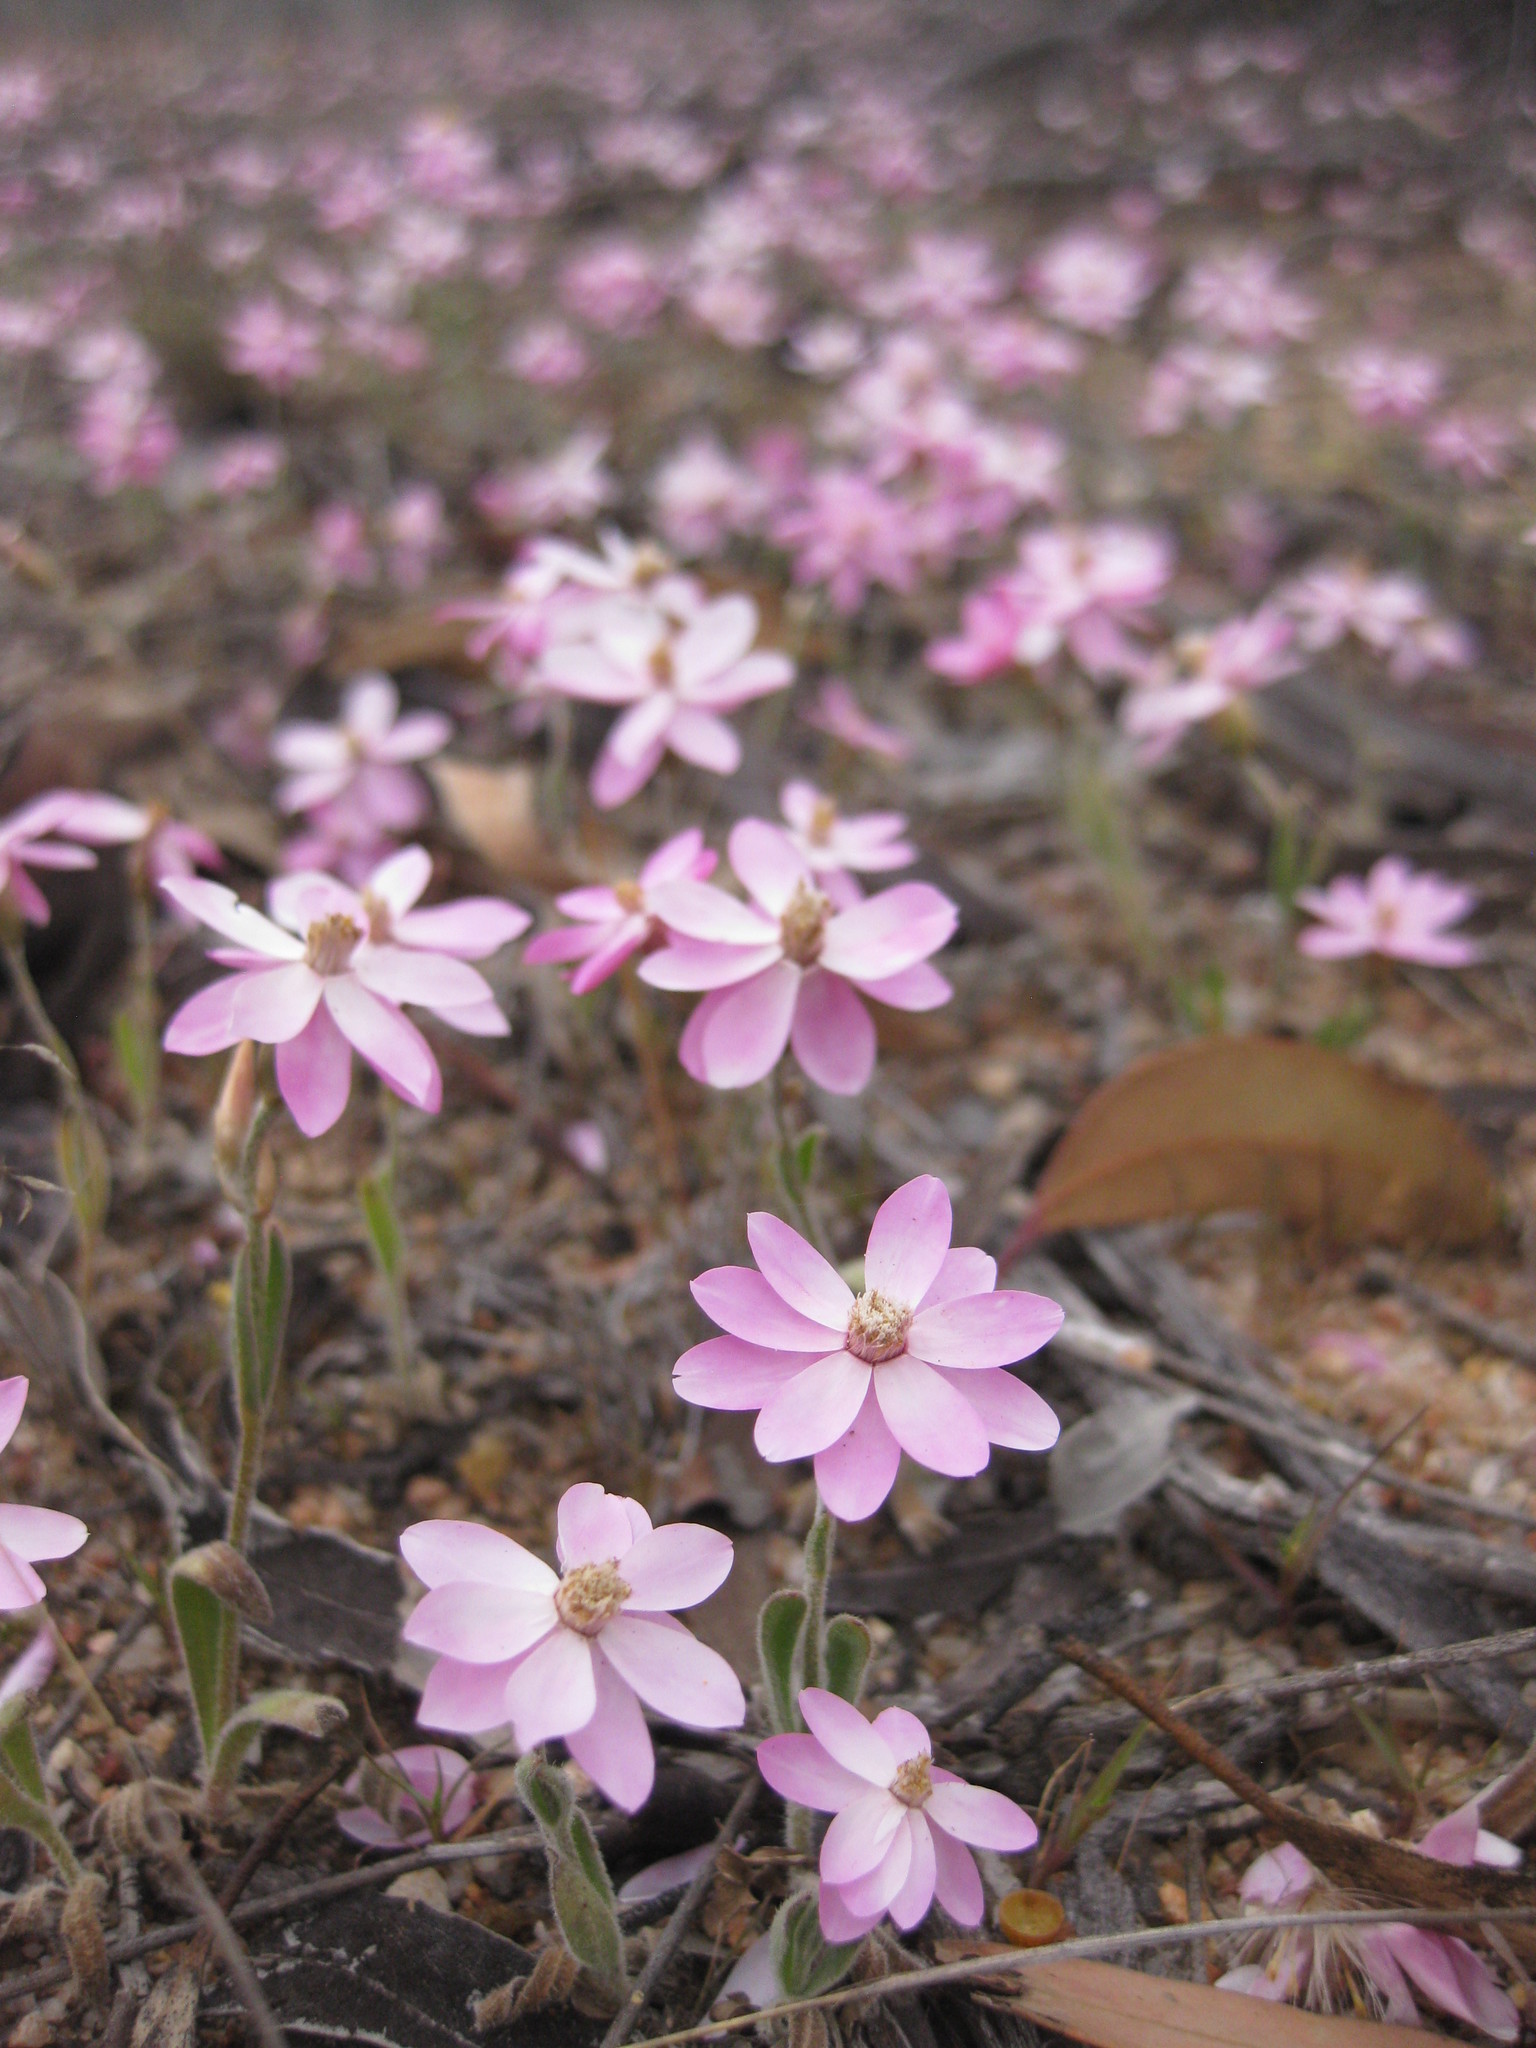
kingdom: Plantae
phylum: Tracheophyta
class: Magnoliopsida
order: Asterales
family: Asteraceae
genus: Schoenia
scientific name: Schoenia cassiniana
